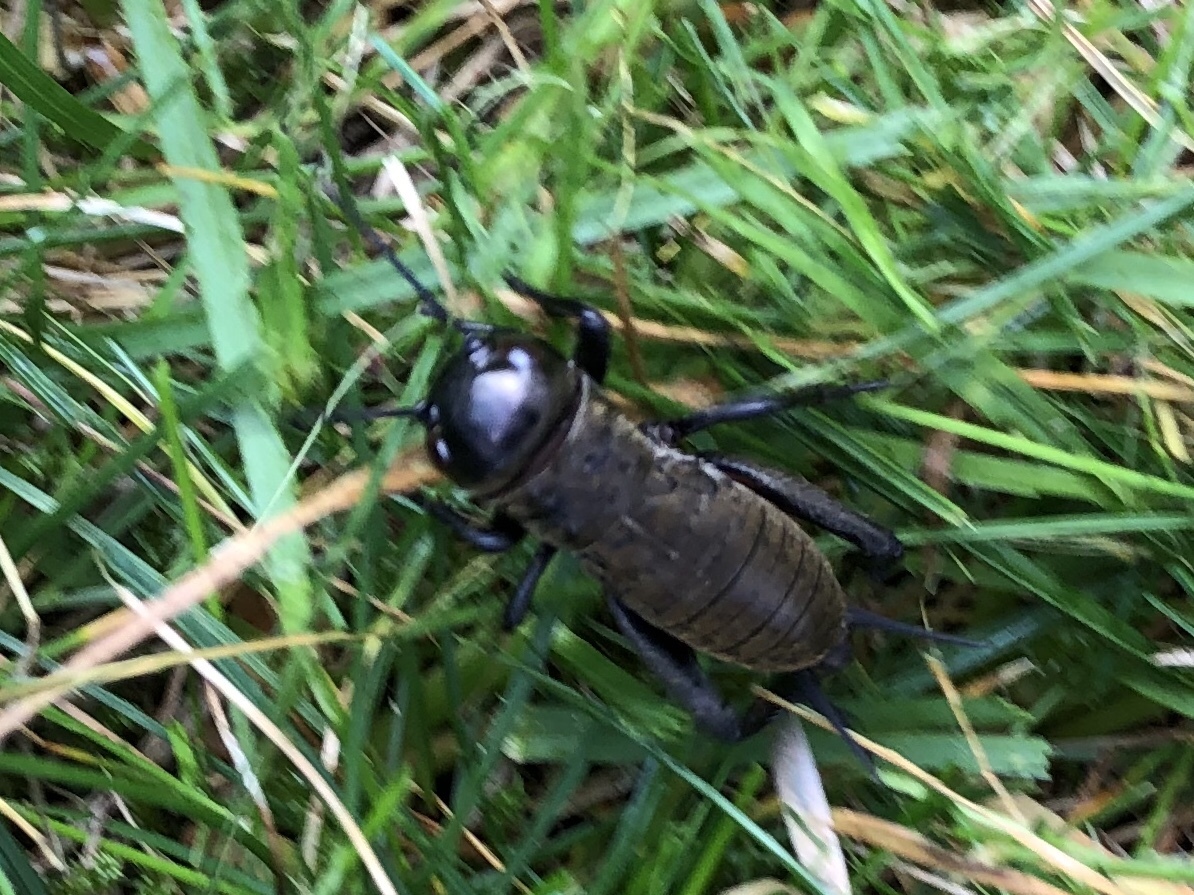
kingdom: Animalia
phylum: Arthropoda
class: Insecta
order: Orthoptera
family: Gryllidae
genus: Gryllus
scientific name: Gryllus campestris
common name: Field cricket
